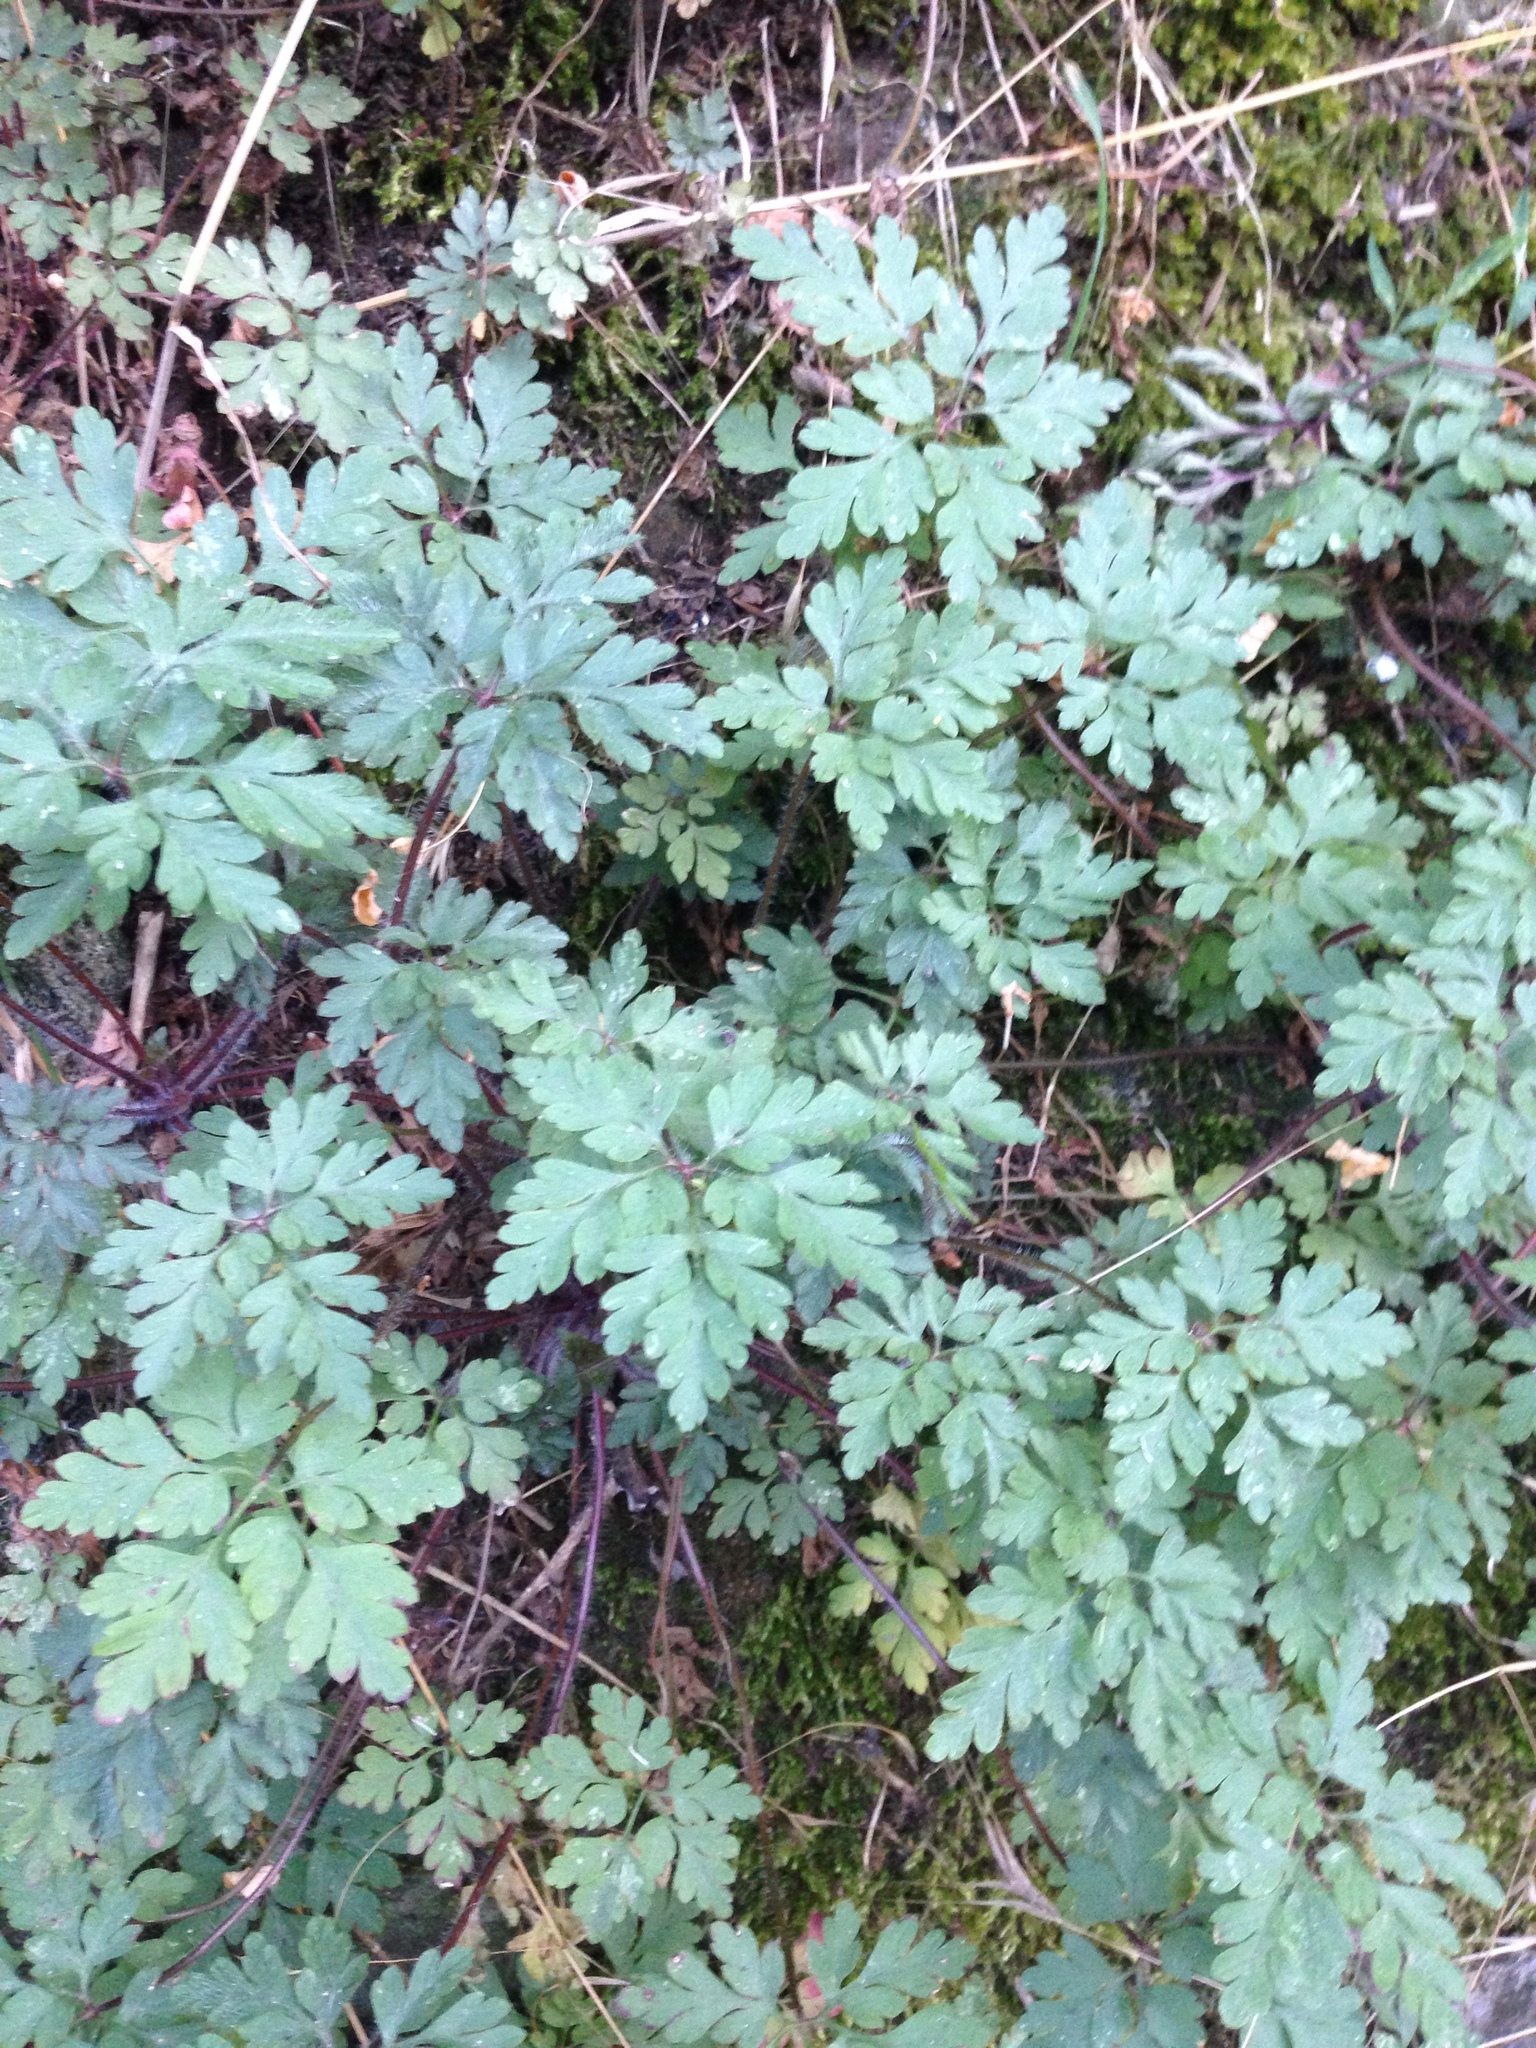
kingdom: Plantae
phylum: Tracheophyta
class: Magnoliopsida
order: Geraniales
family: Geraniaceae
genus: Geranium
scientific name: Geranium robertianum
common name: Herb-robert
